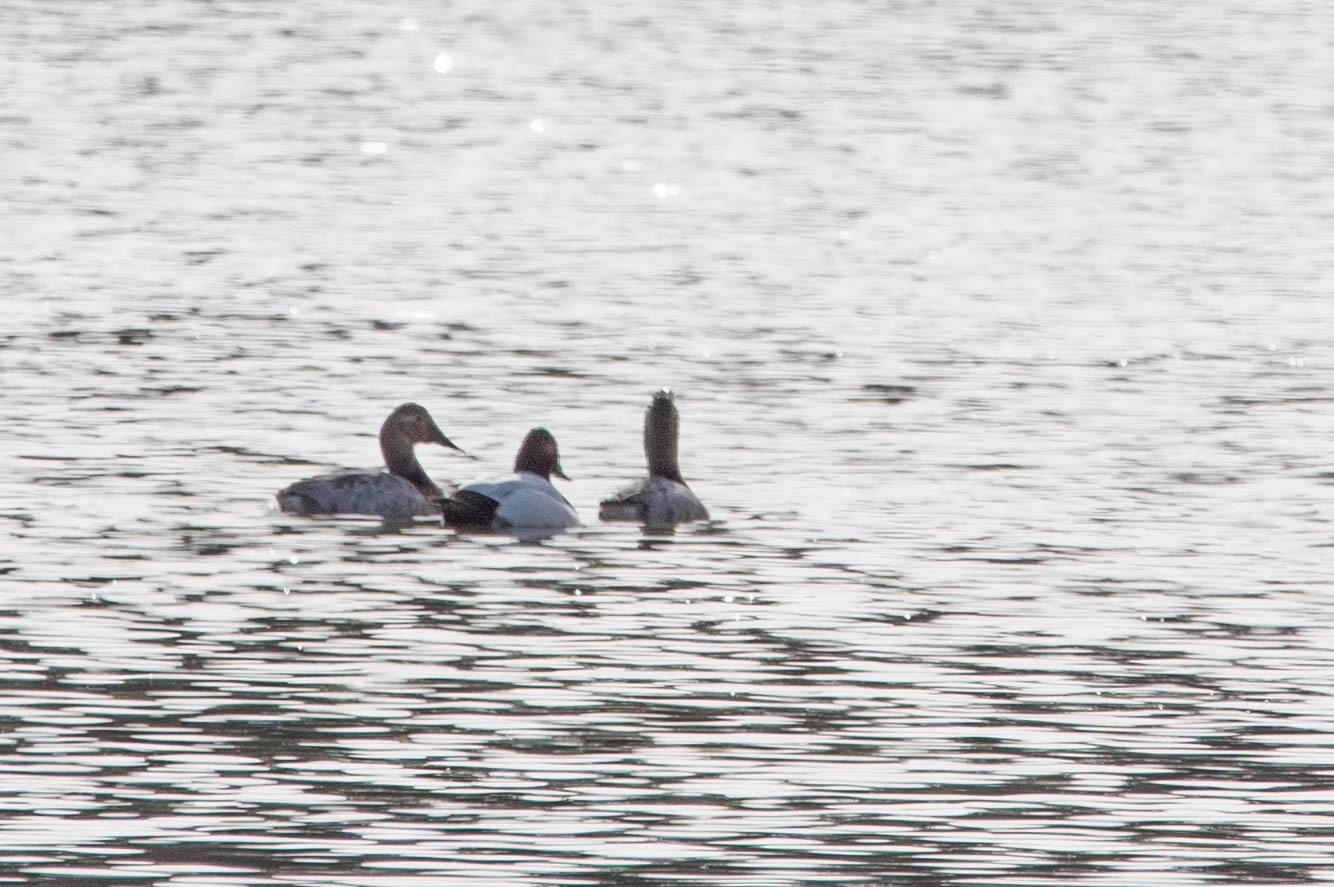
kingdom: Animalia
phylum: Chordata
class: Aves
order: Anseriformes
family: Anatidae
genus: Aythya
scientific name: Aythya valisineria
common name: Canvasback
